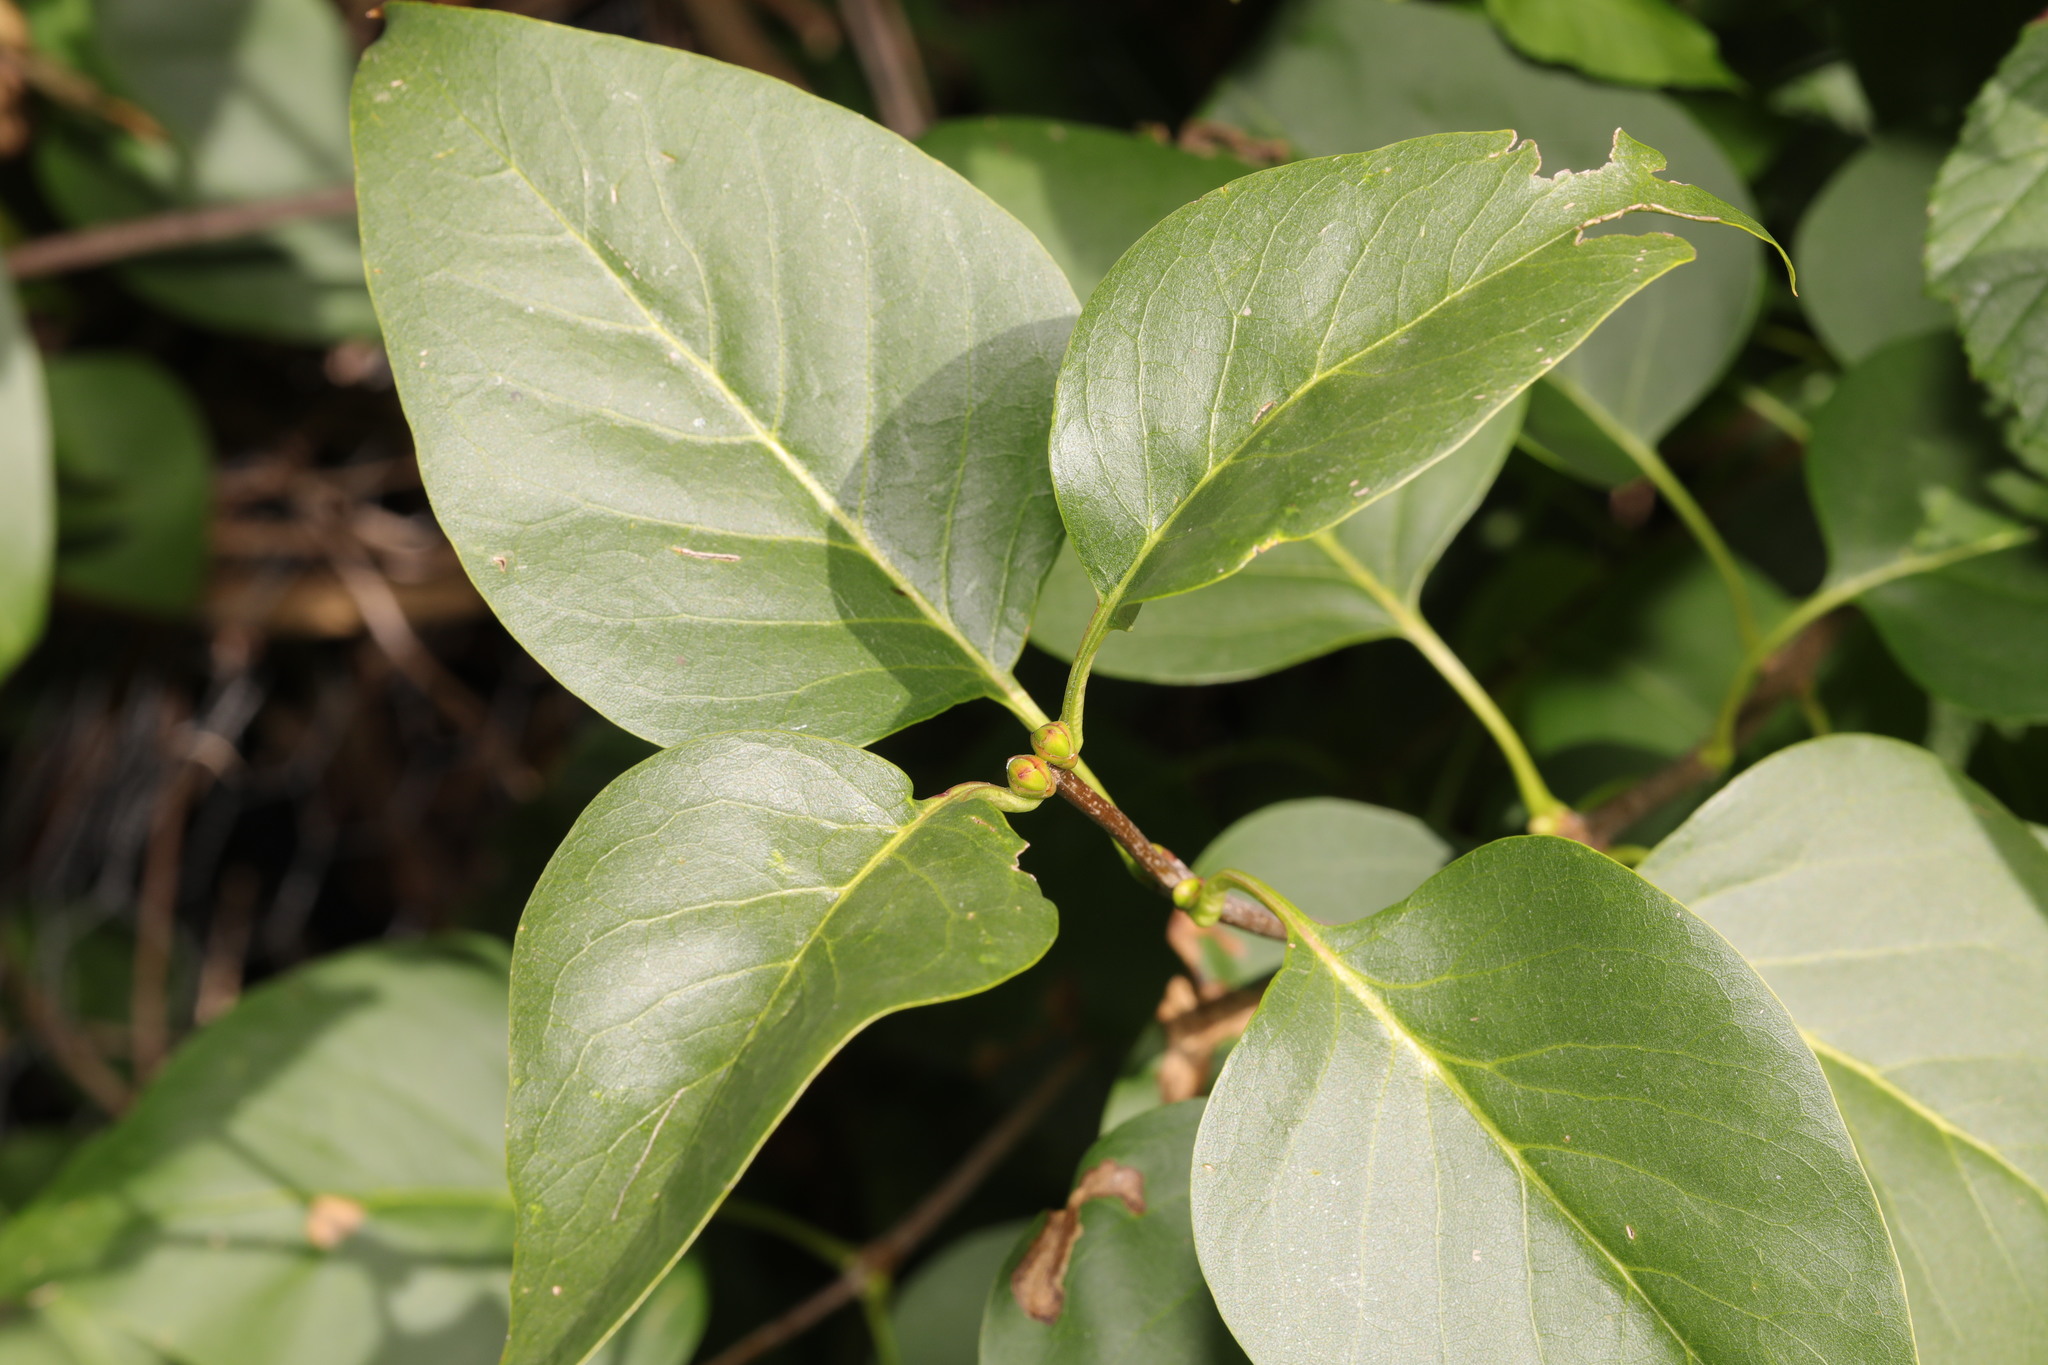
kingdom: Plantae
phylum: Tracheophyta
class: Magnoliopsida
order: Lamiales
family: Oleaceae
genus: Syringa
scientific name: Syringa vulgaris
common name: Common lilac
